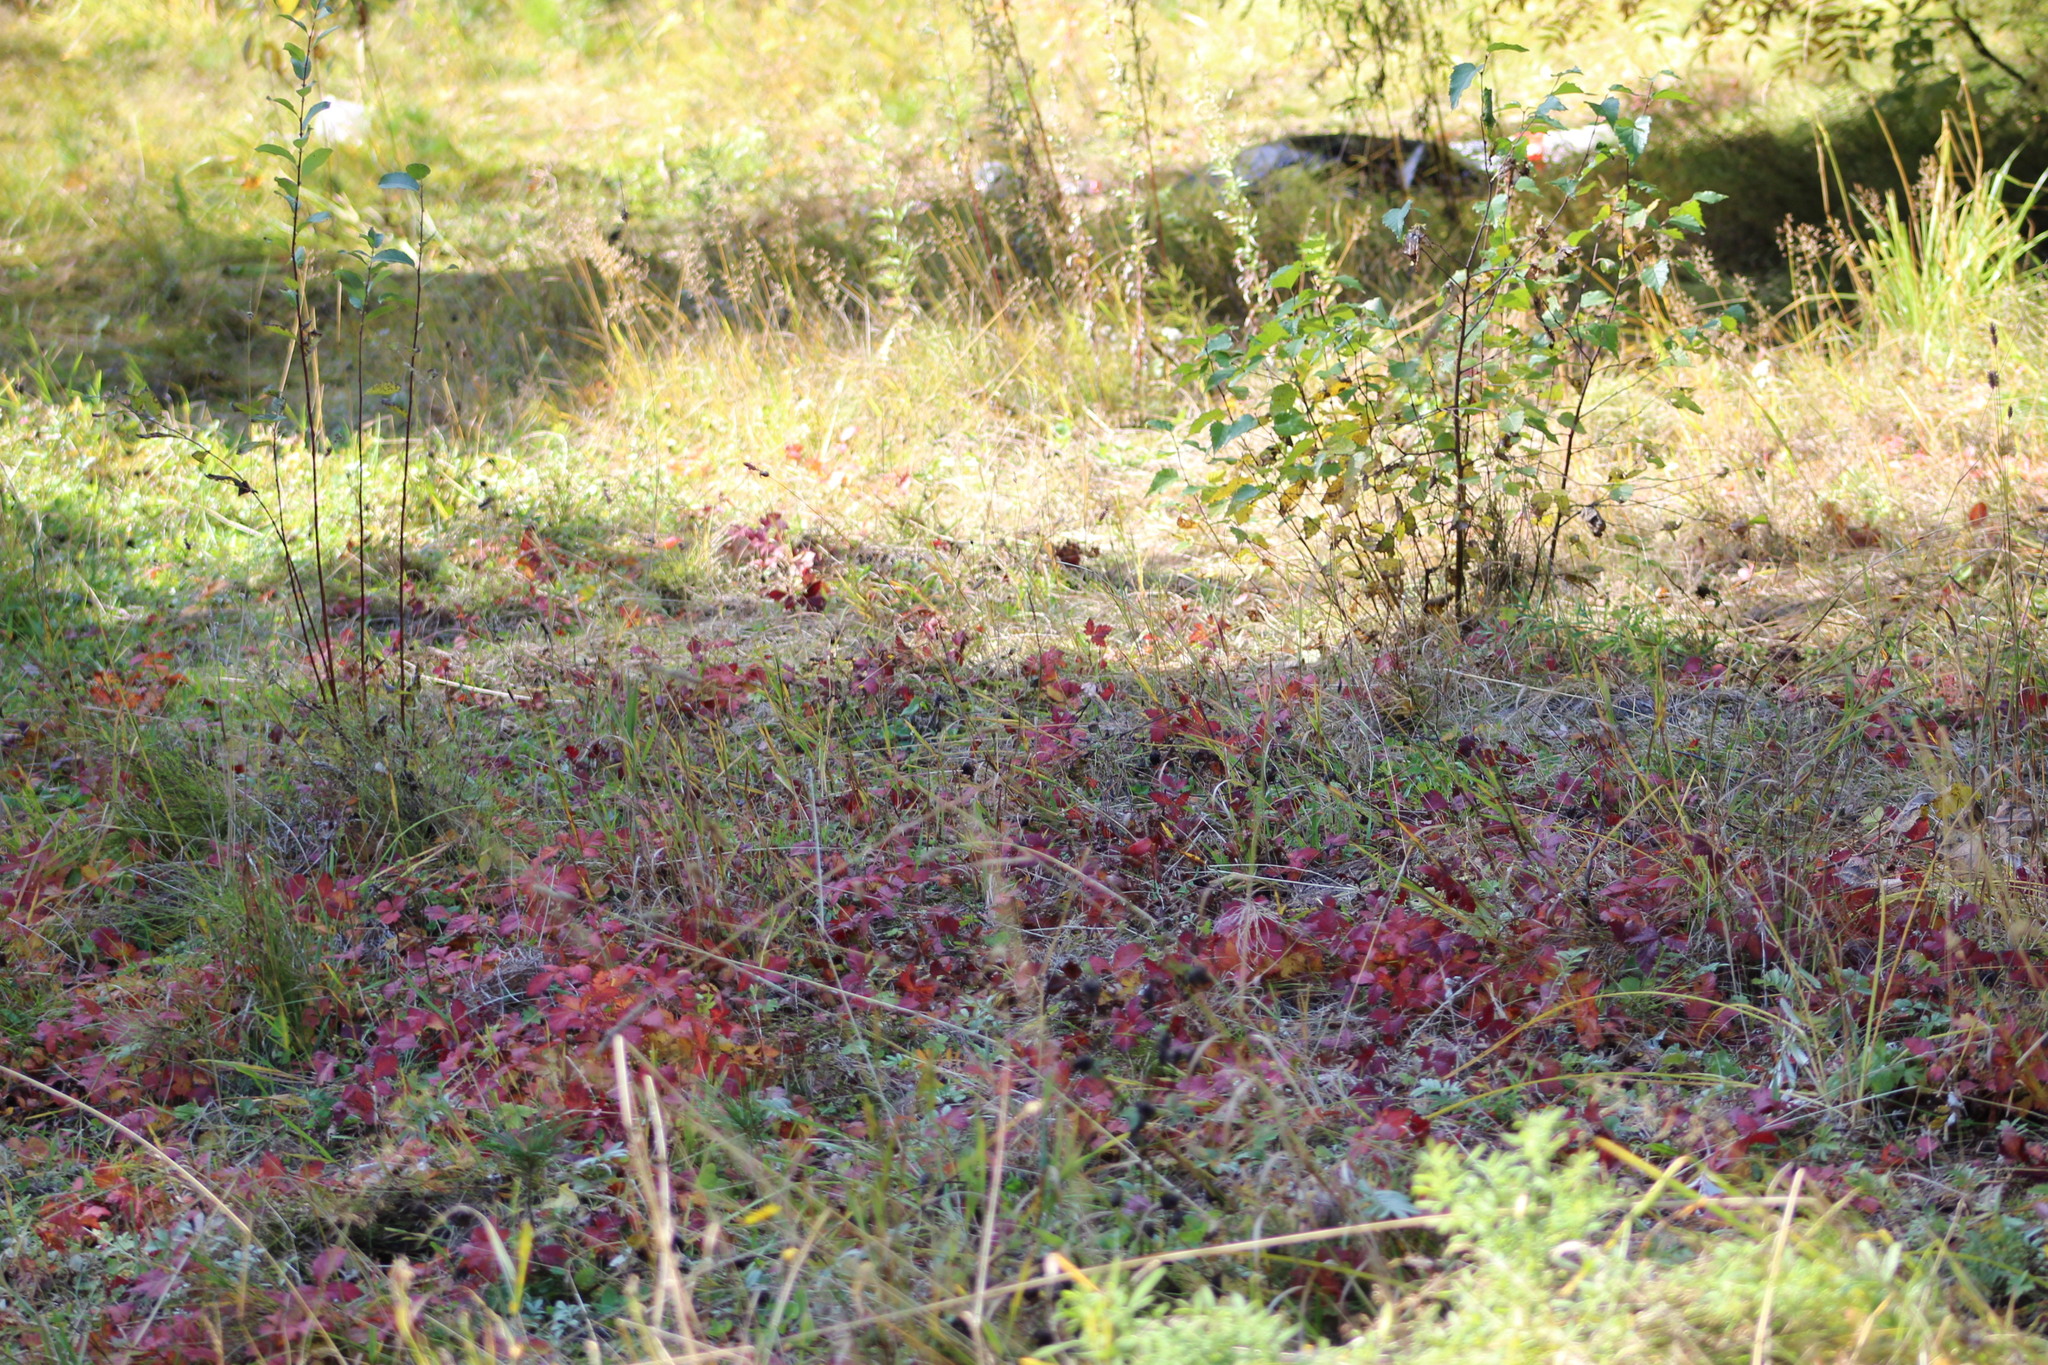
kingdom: Plantae
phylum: Tracheophyta
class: Magnoliopsida
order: Rosales
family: Rosaceae
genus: Rubus
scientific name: Rubus arcticus
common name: Arctic bramble
